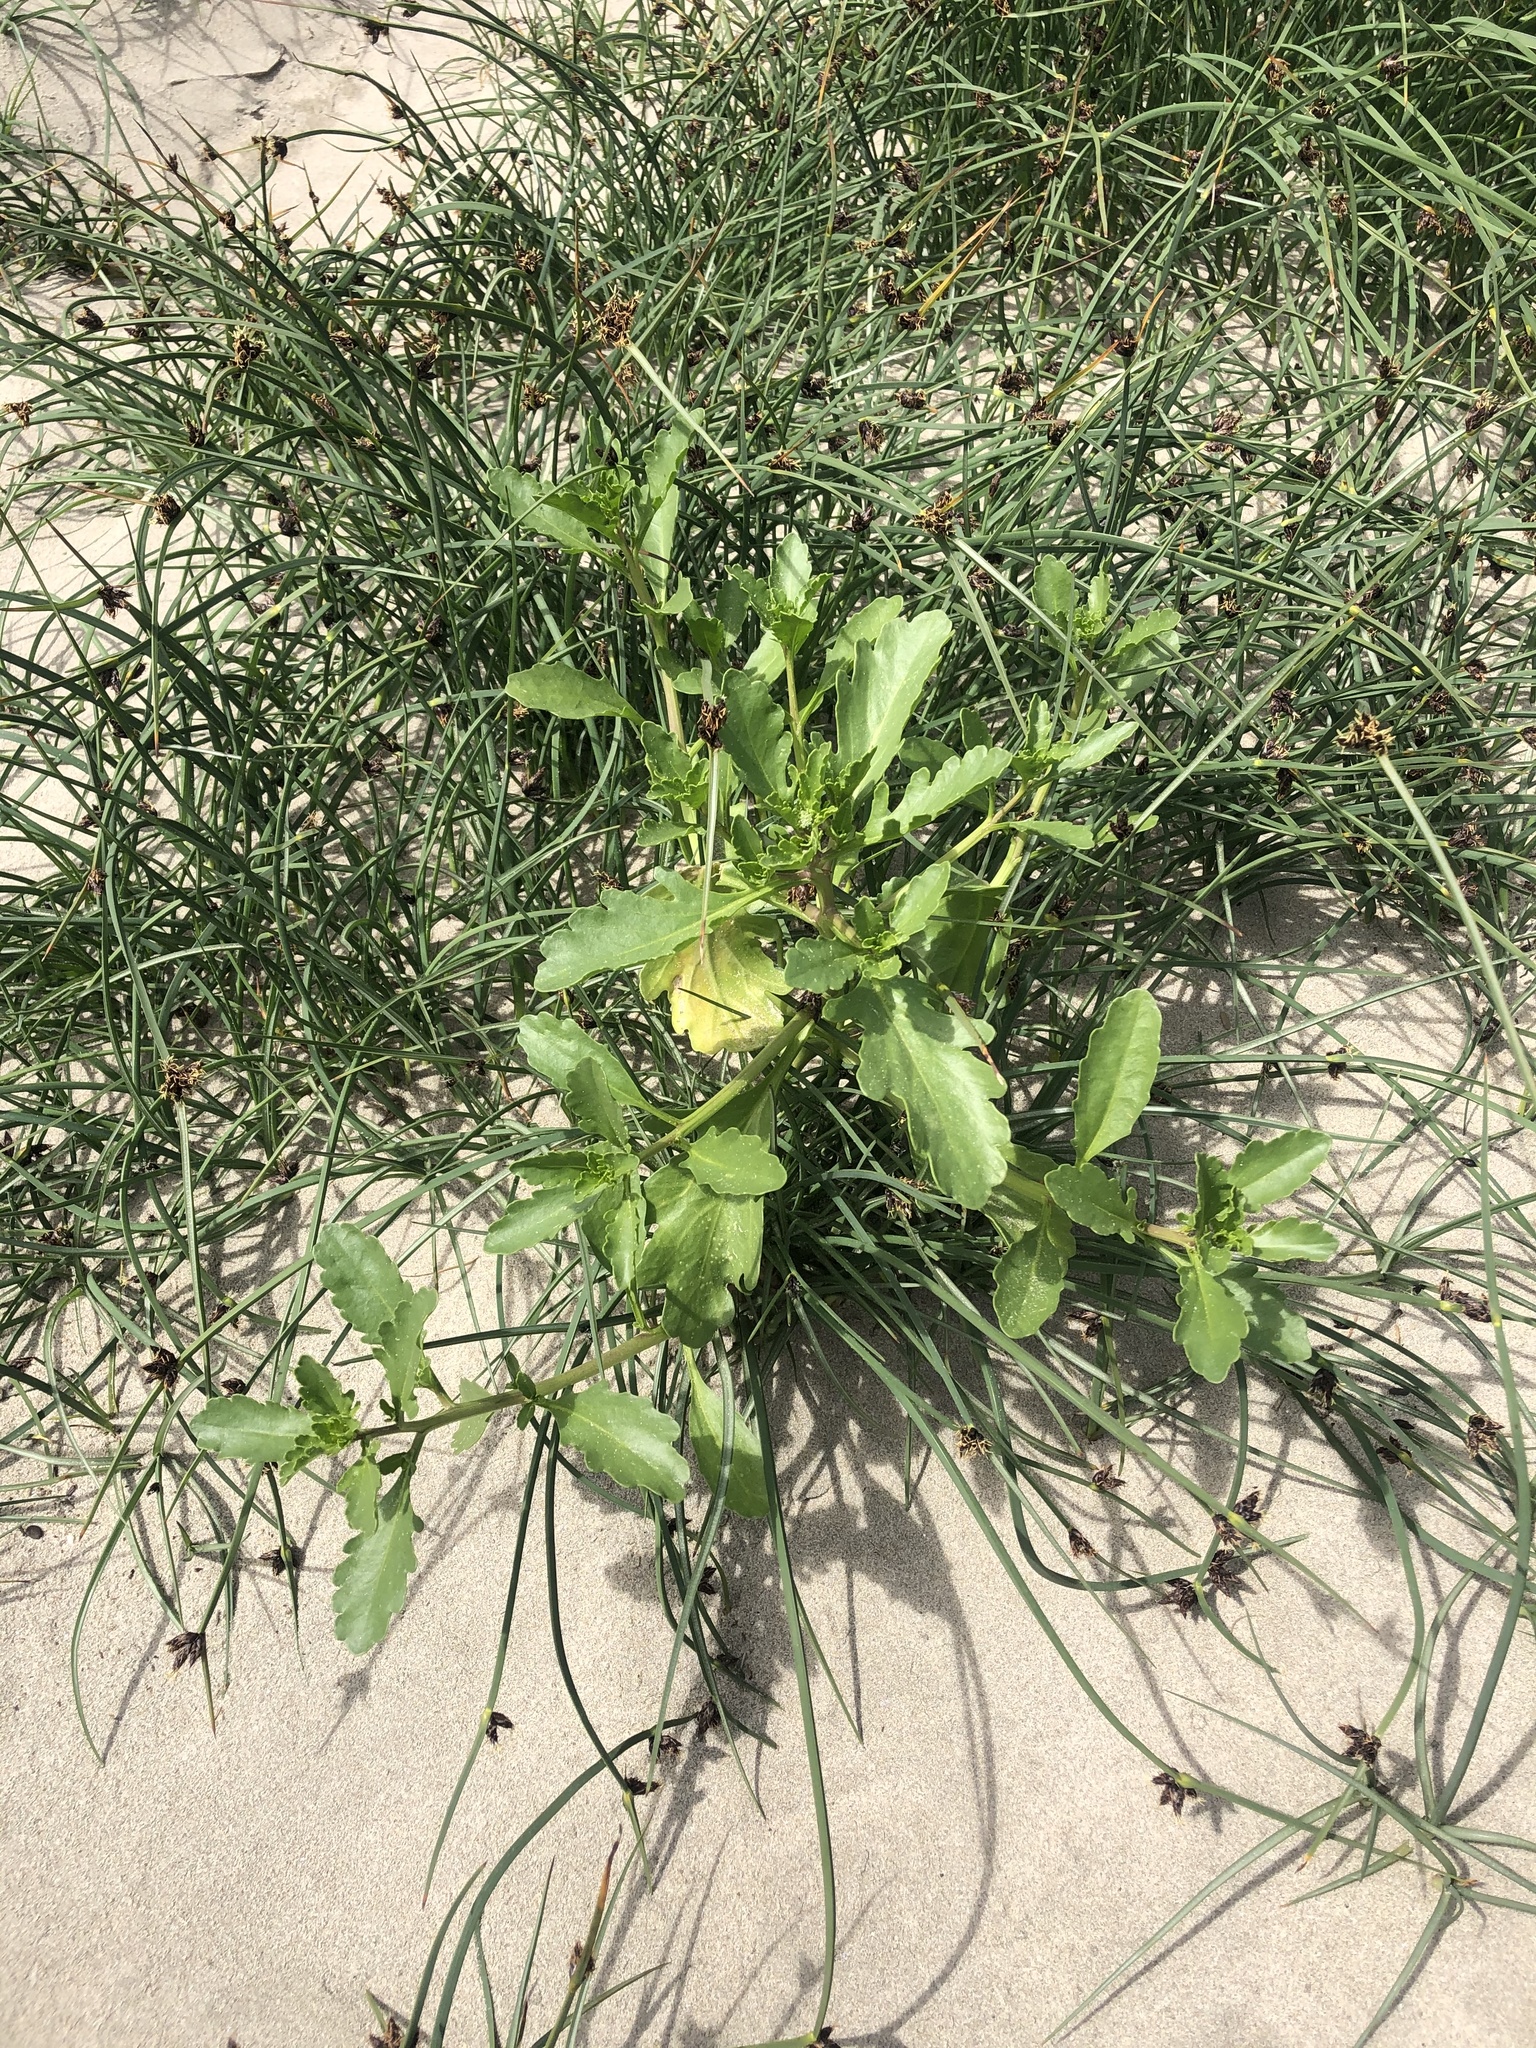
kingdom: Plantae
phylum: Tracheophyta
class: Magnoliopsida
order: Brassicales
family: Brassicaceae
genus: Cakile
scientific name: Cakile edentula
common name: American sea rocket
